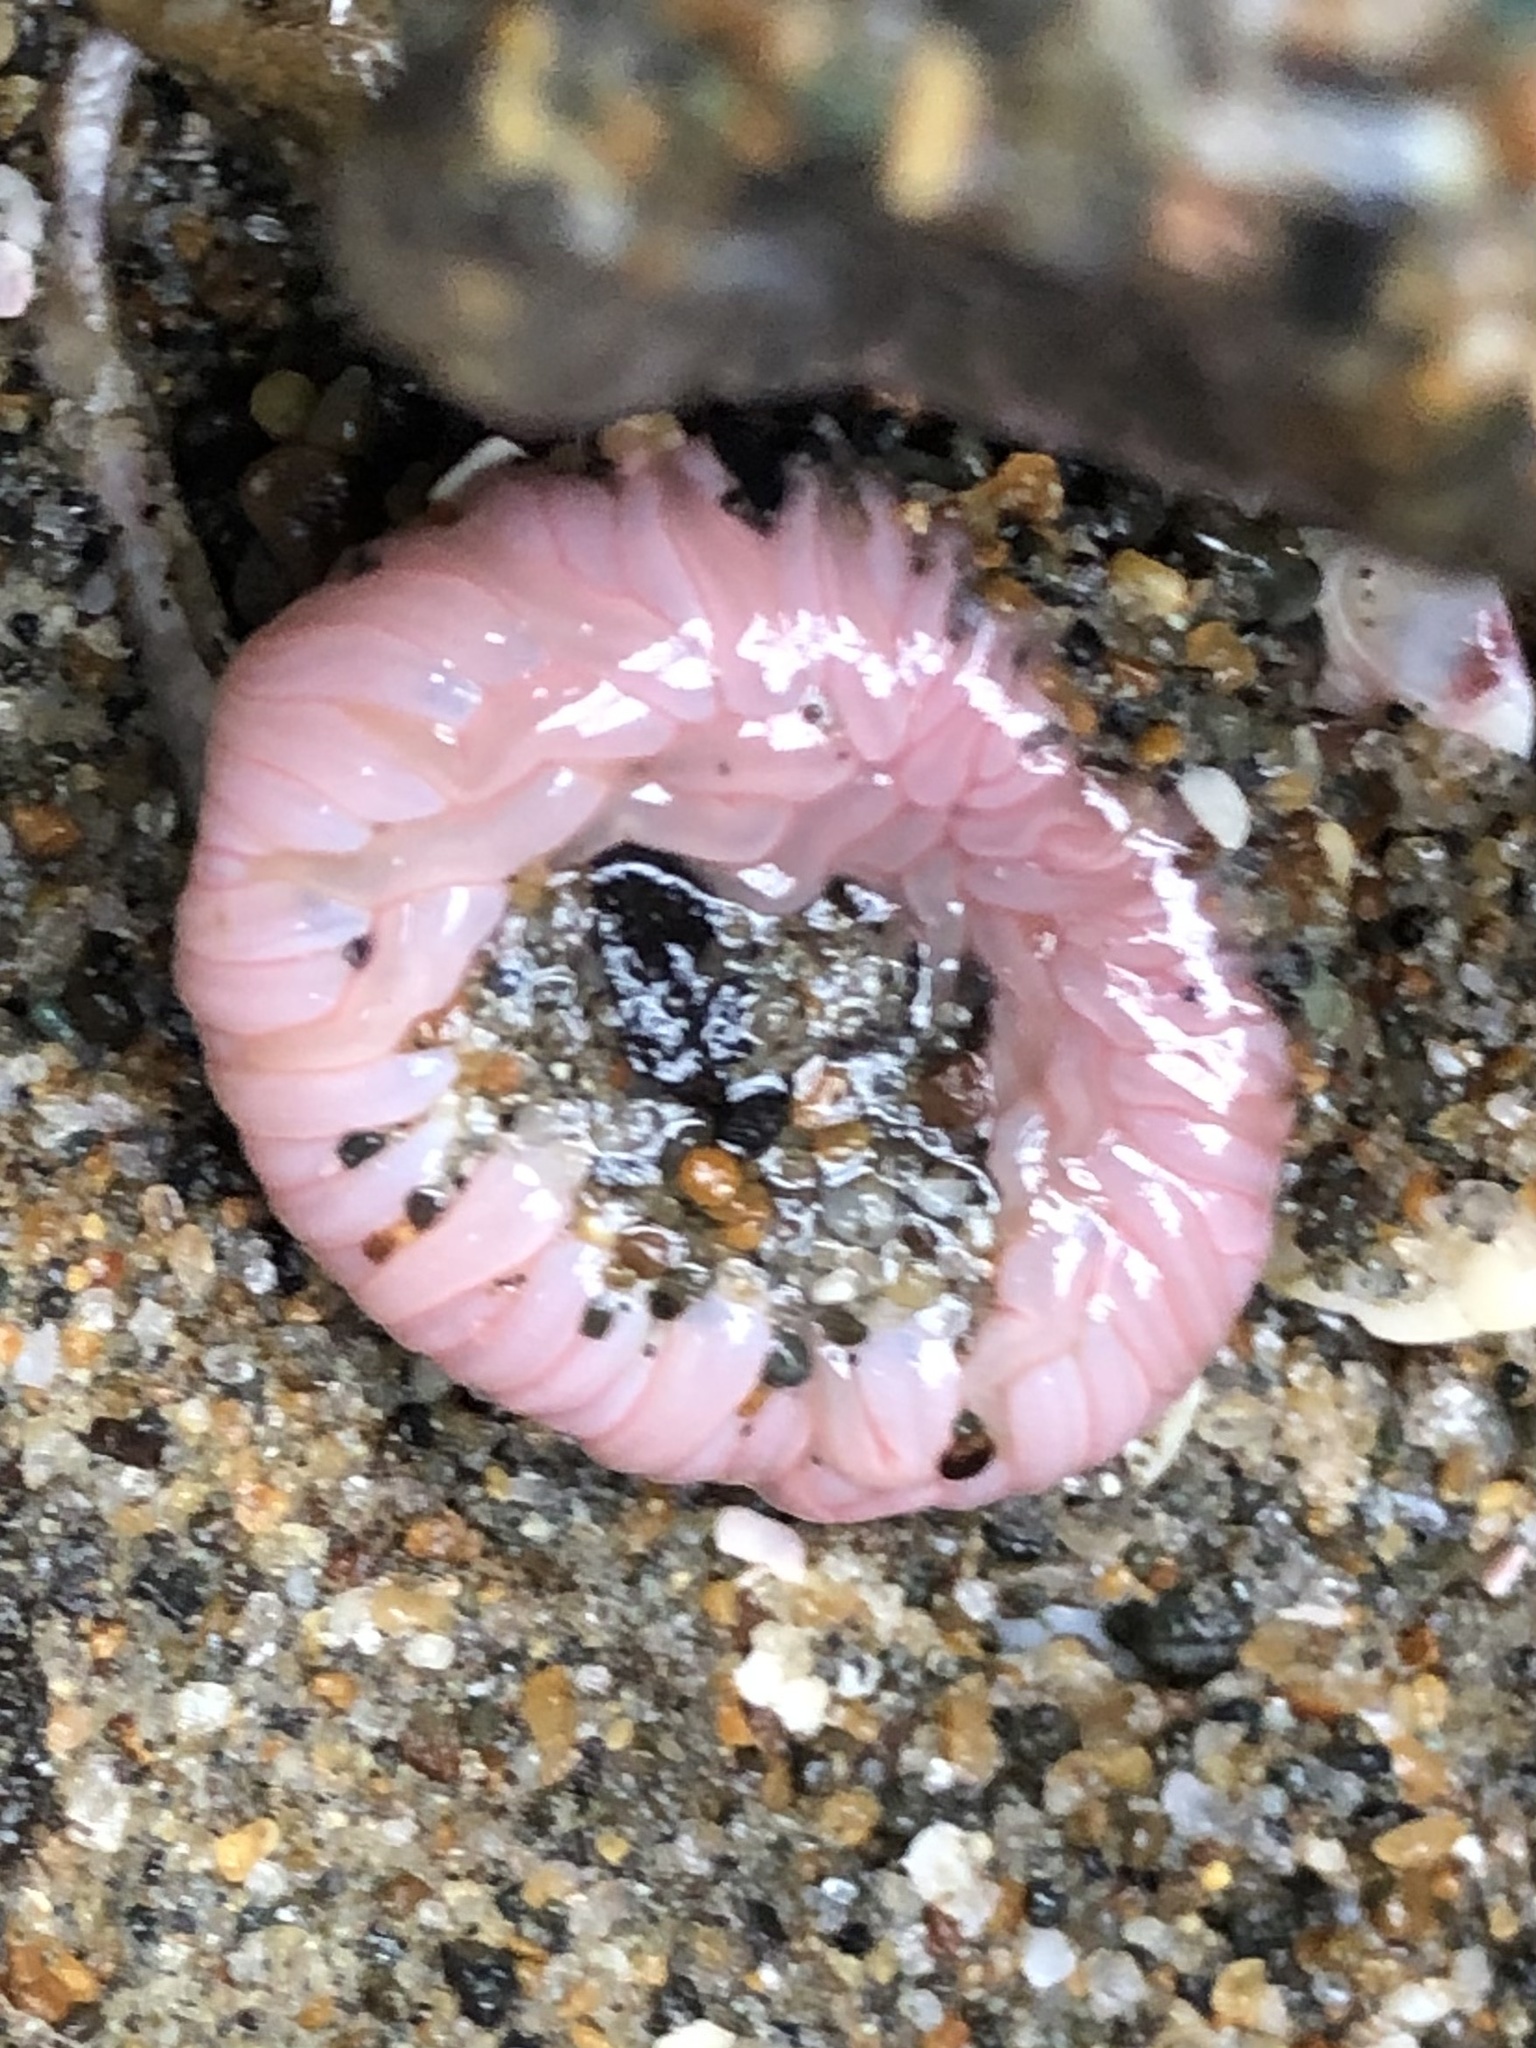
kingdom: Animalia
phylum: Cnidaria
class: Anthozoa
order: Actiniaria
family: Actiniidae
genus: Anthopleura
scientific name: Anthopleura artemisia
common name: Buried sea anemone
